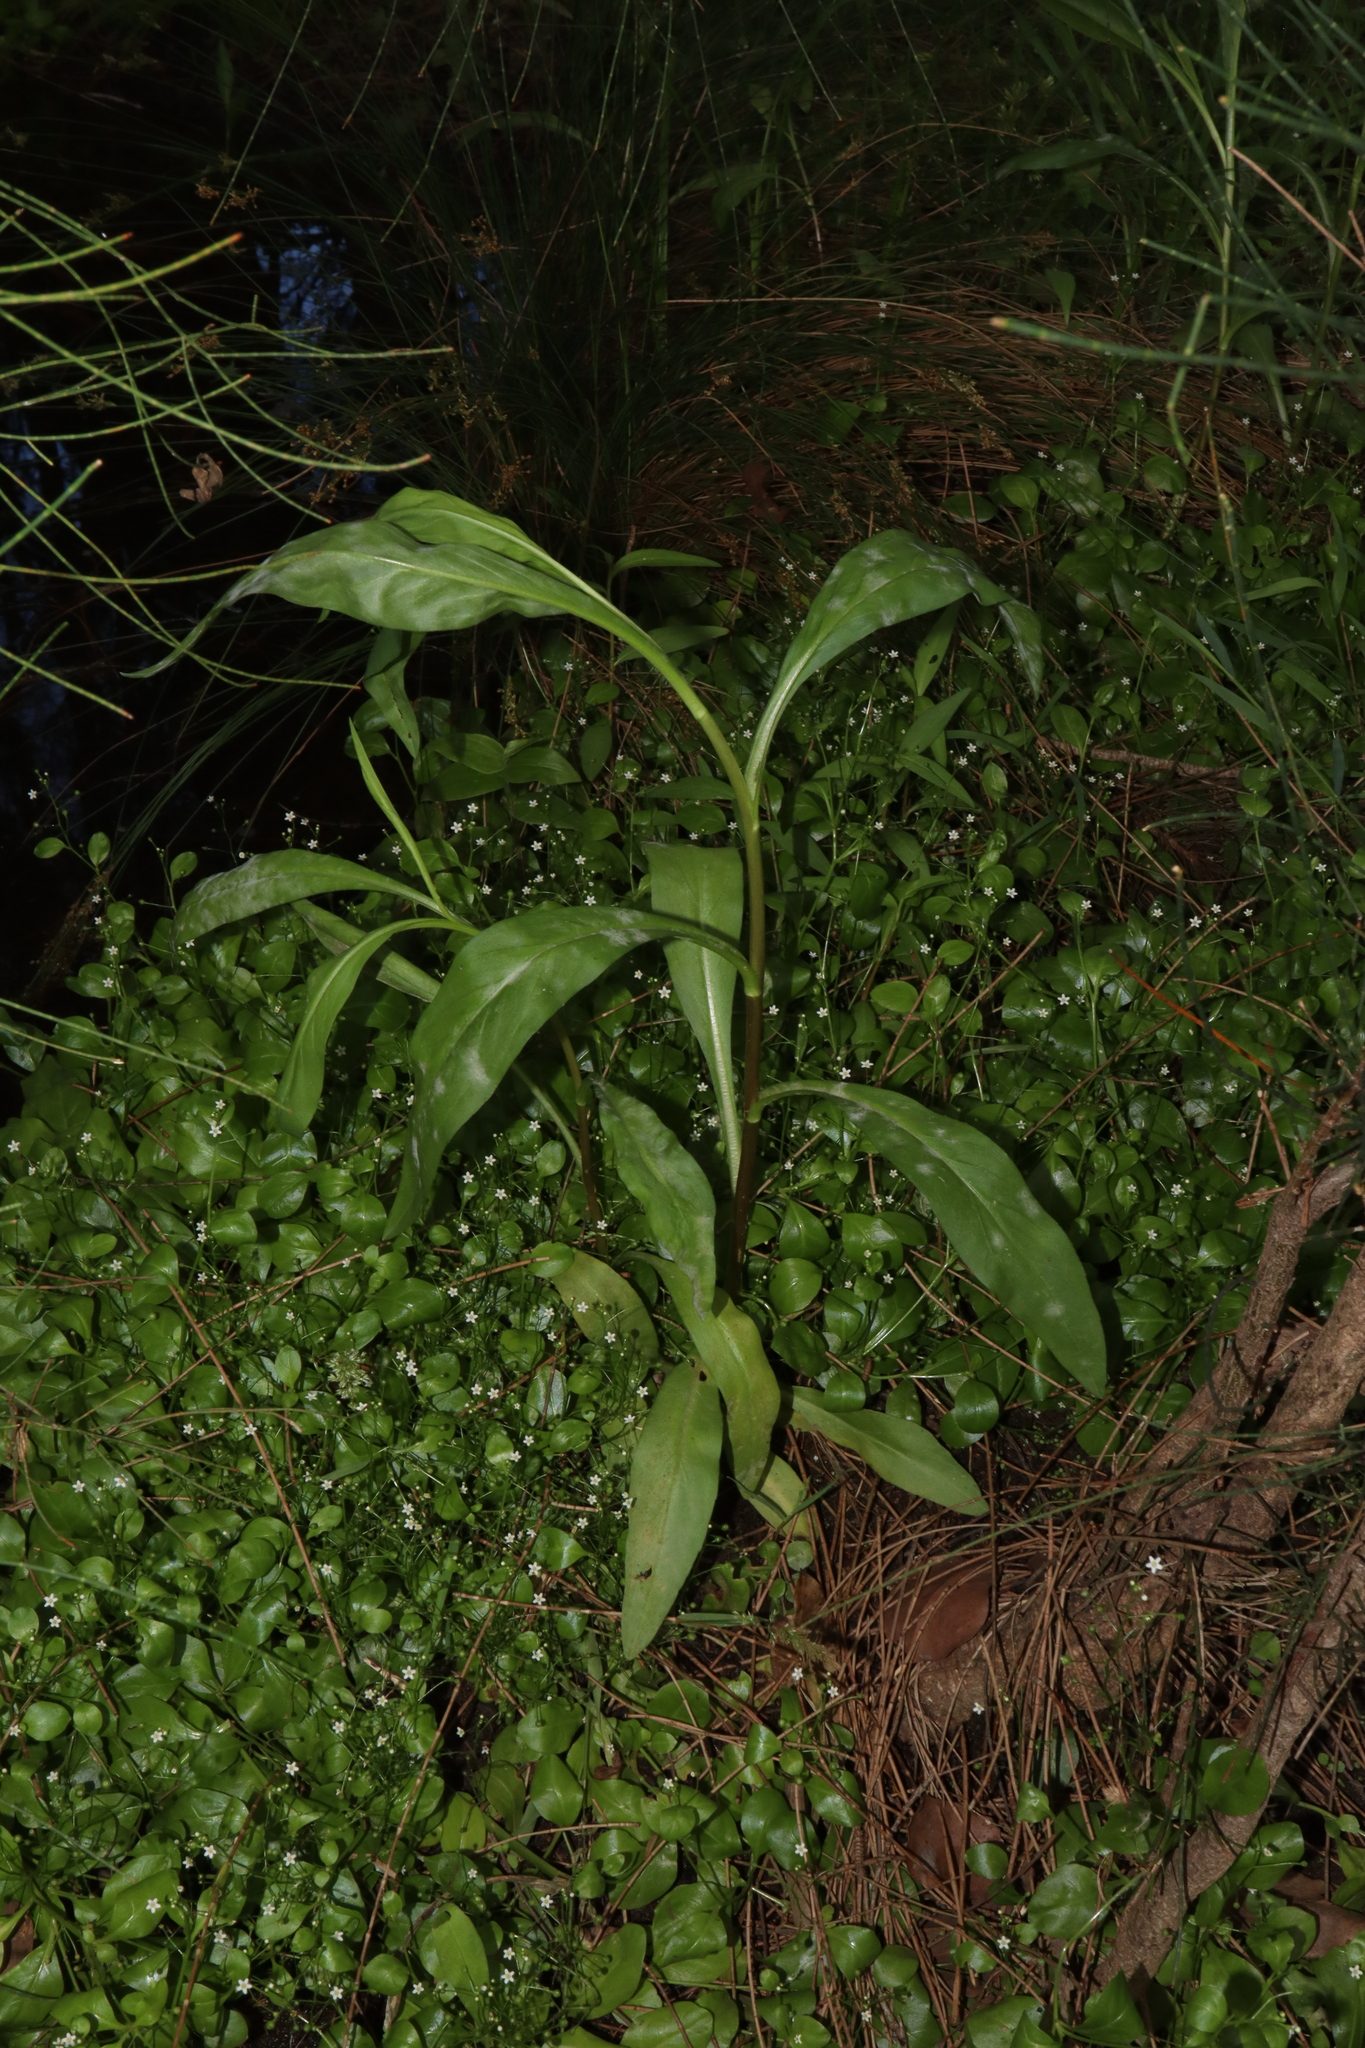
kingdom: Plantae
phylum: Tracheophyta
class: Magnoliopsida
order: Asterales
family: Asteraceae
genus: Symphyotrichum
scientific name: Symphyotrichum subulatum
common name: Annual saltmarsh aster
